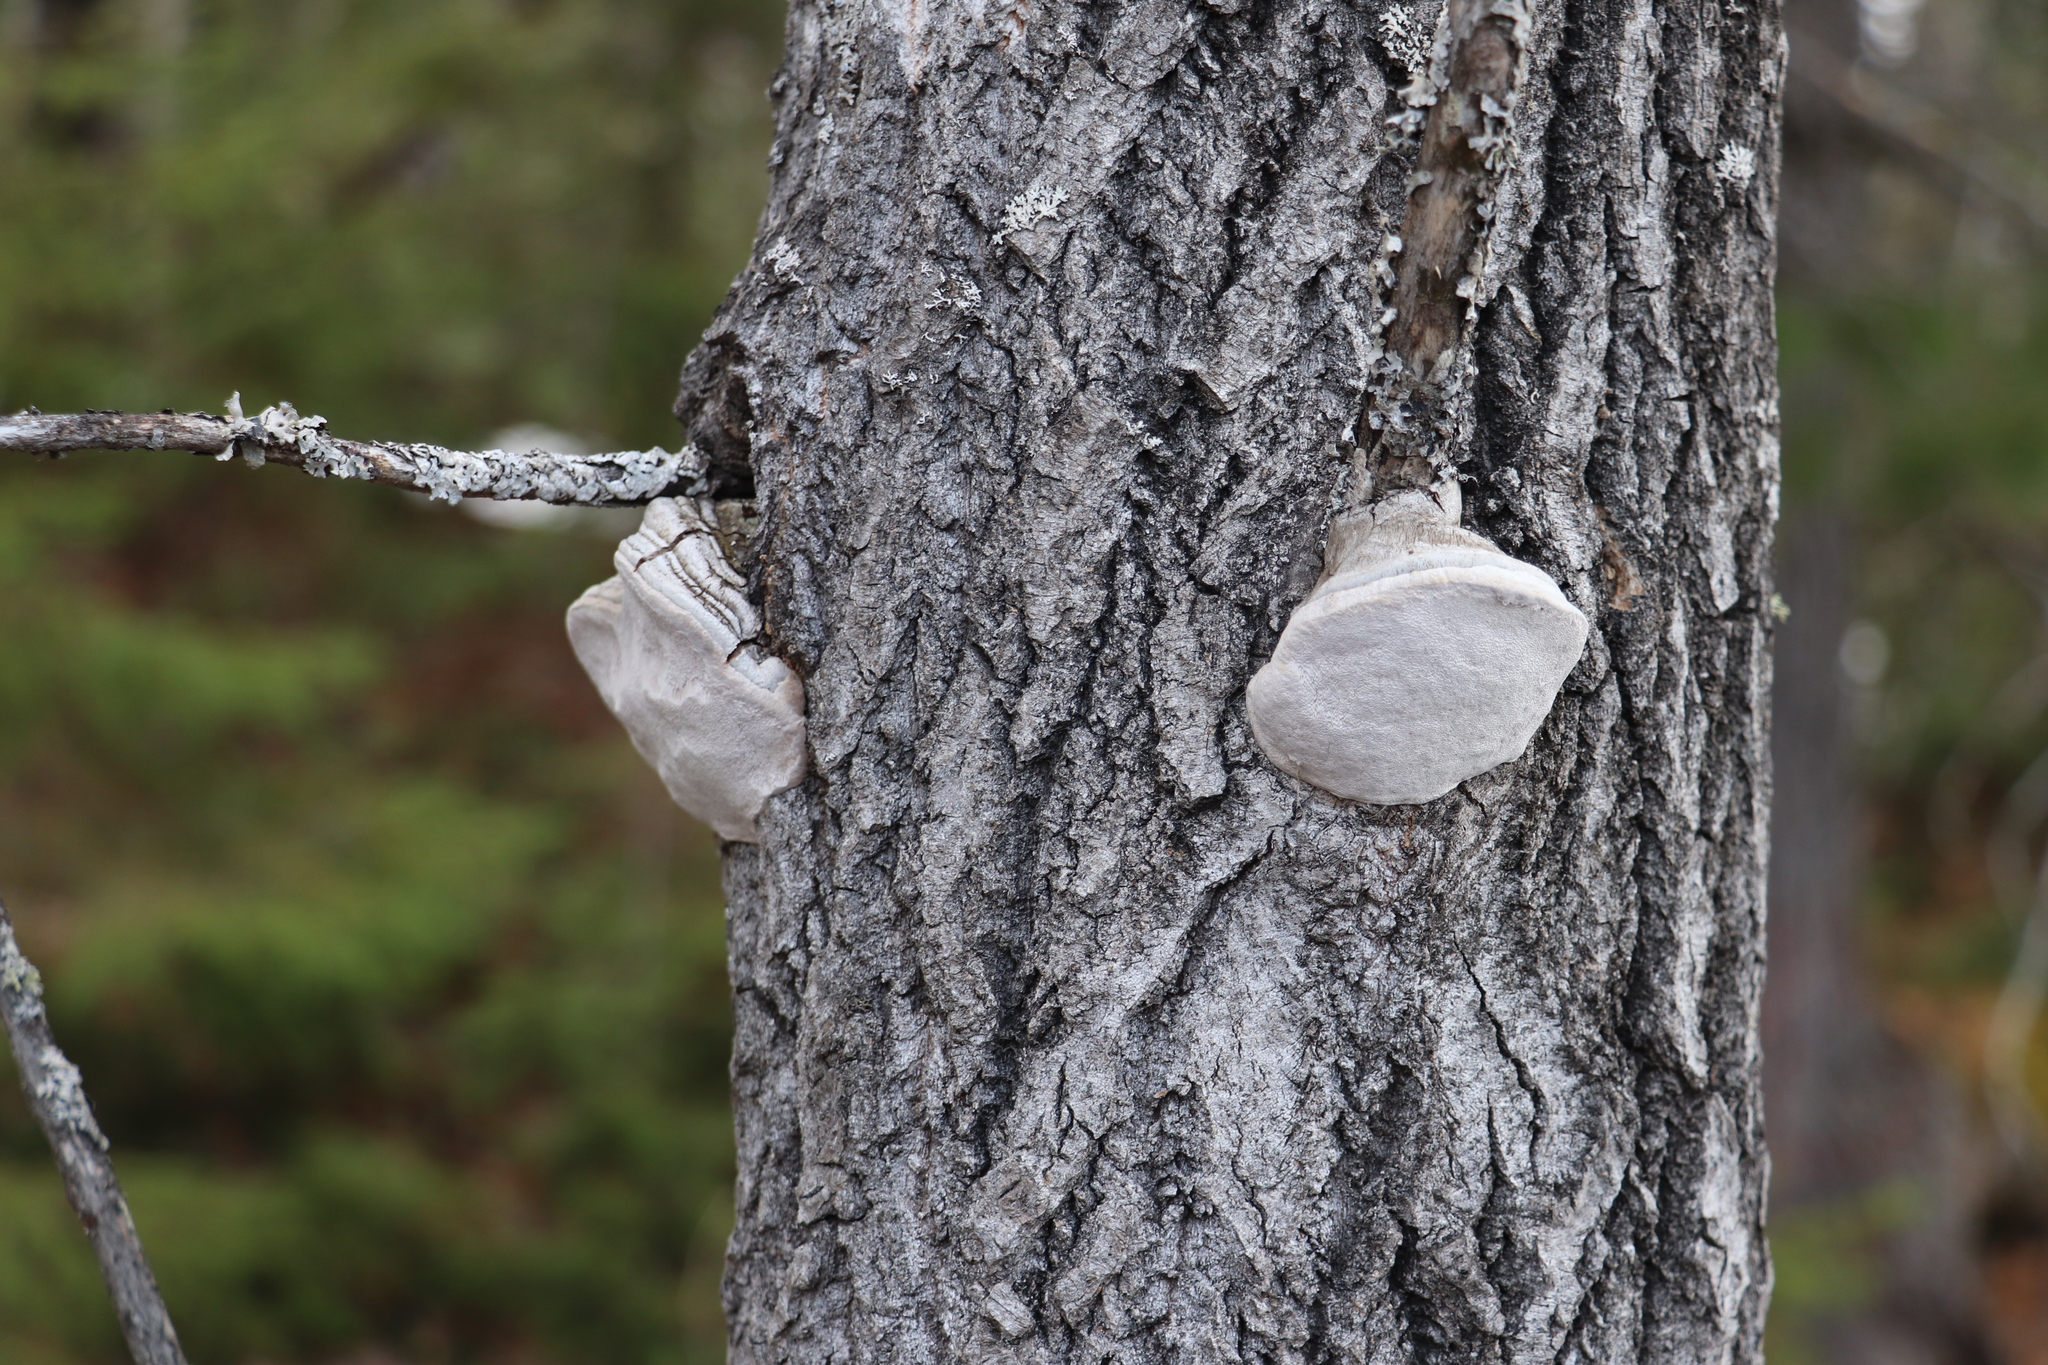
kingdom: Fungi
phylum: Basidiomycota
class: Agaricomycetes
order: Hymenochaetales
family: Hymenochaetaceae
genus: Phellinus
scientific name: Phellinus tremulae
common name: Aspen bracket
